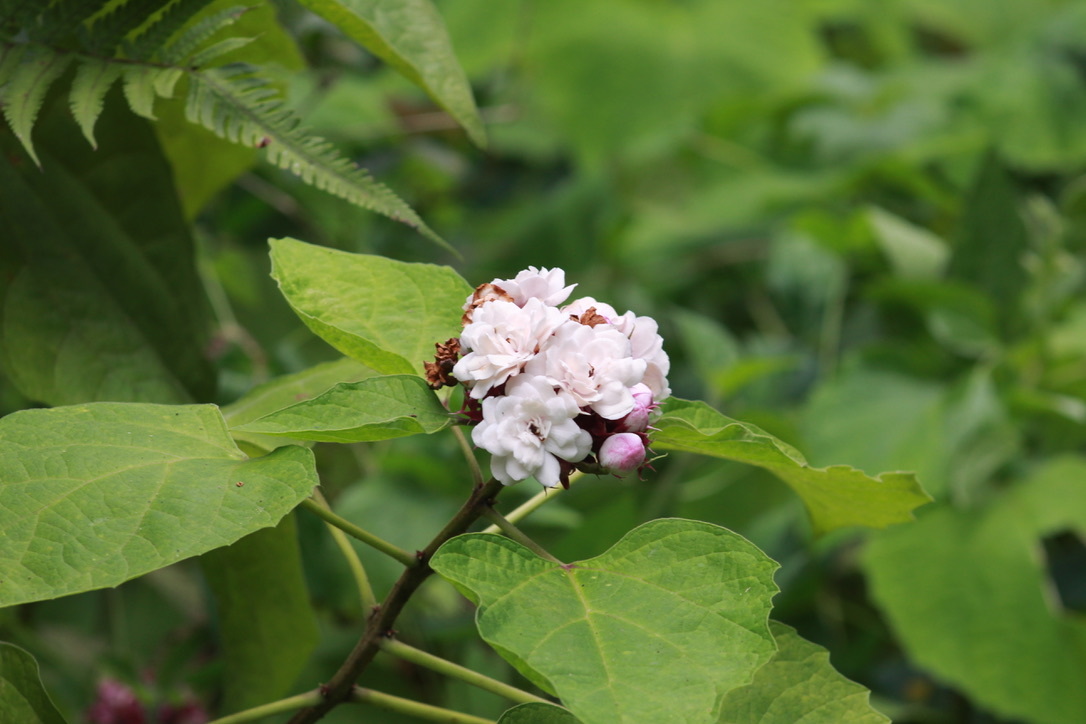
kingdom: Plantae
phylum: Tracheophyta
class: Magnoliopsida
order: Lamiales
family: Lamiaceae
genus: Clerodendrum
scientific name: Clerodendrum chinense
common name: Stickbush
